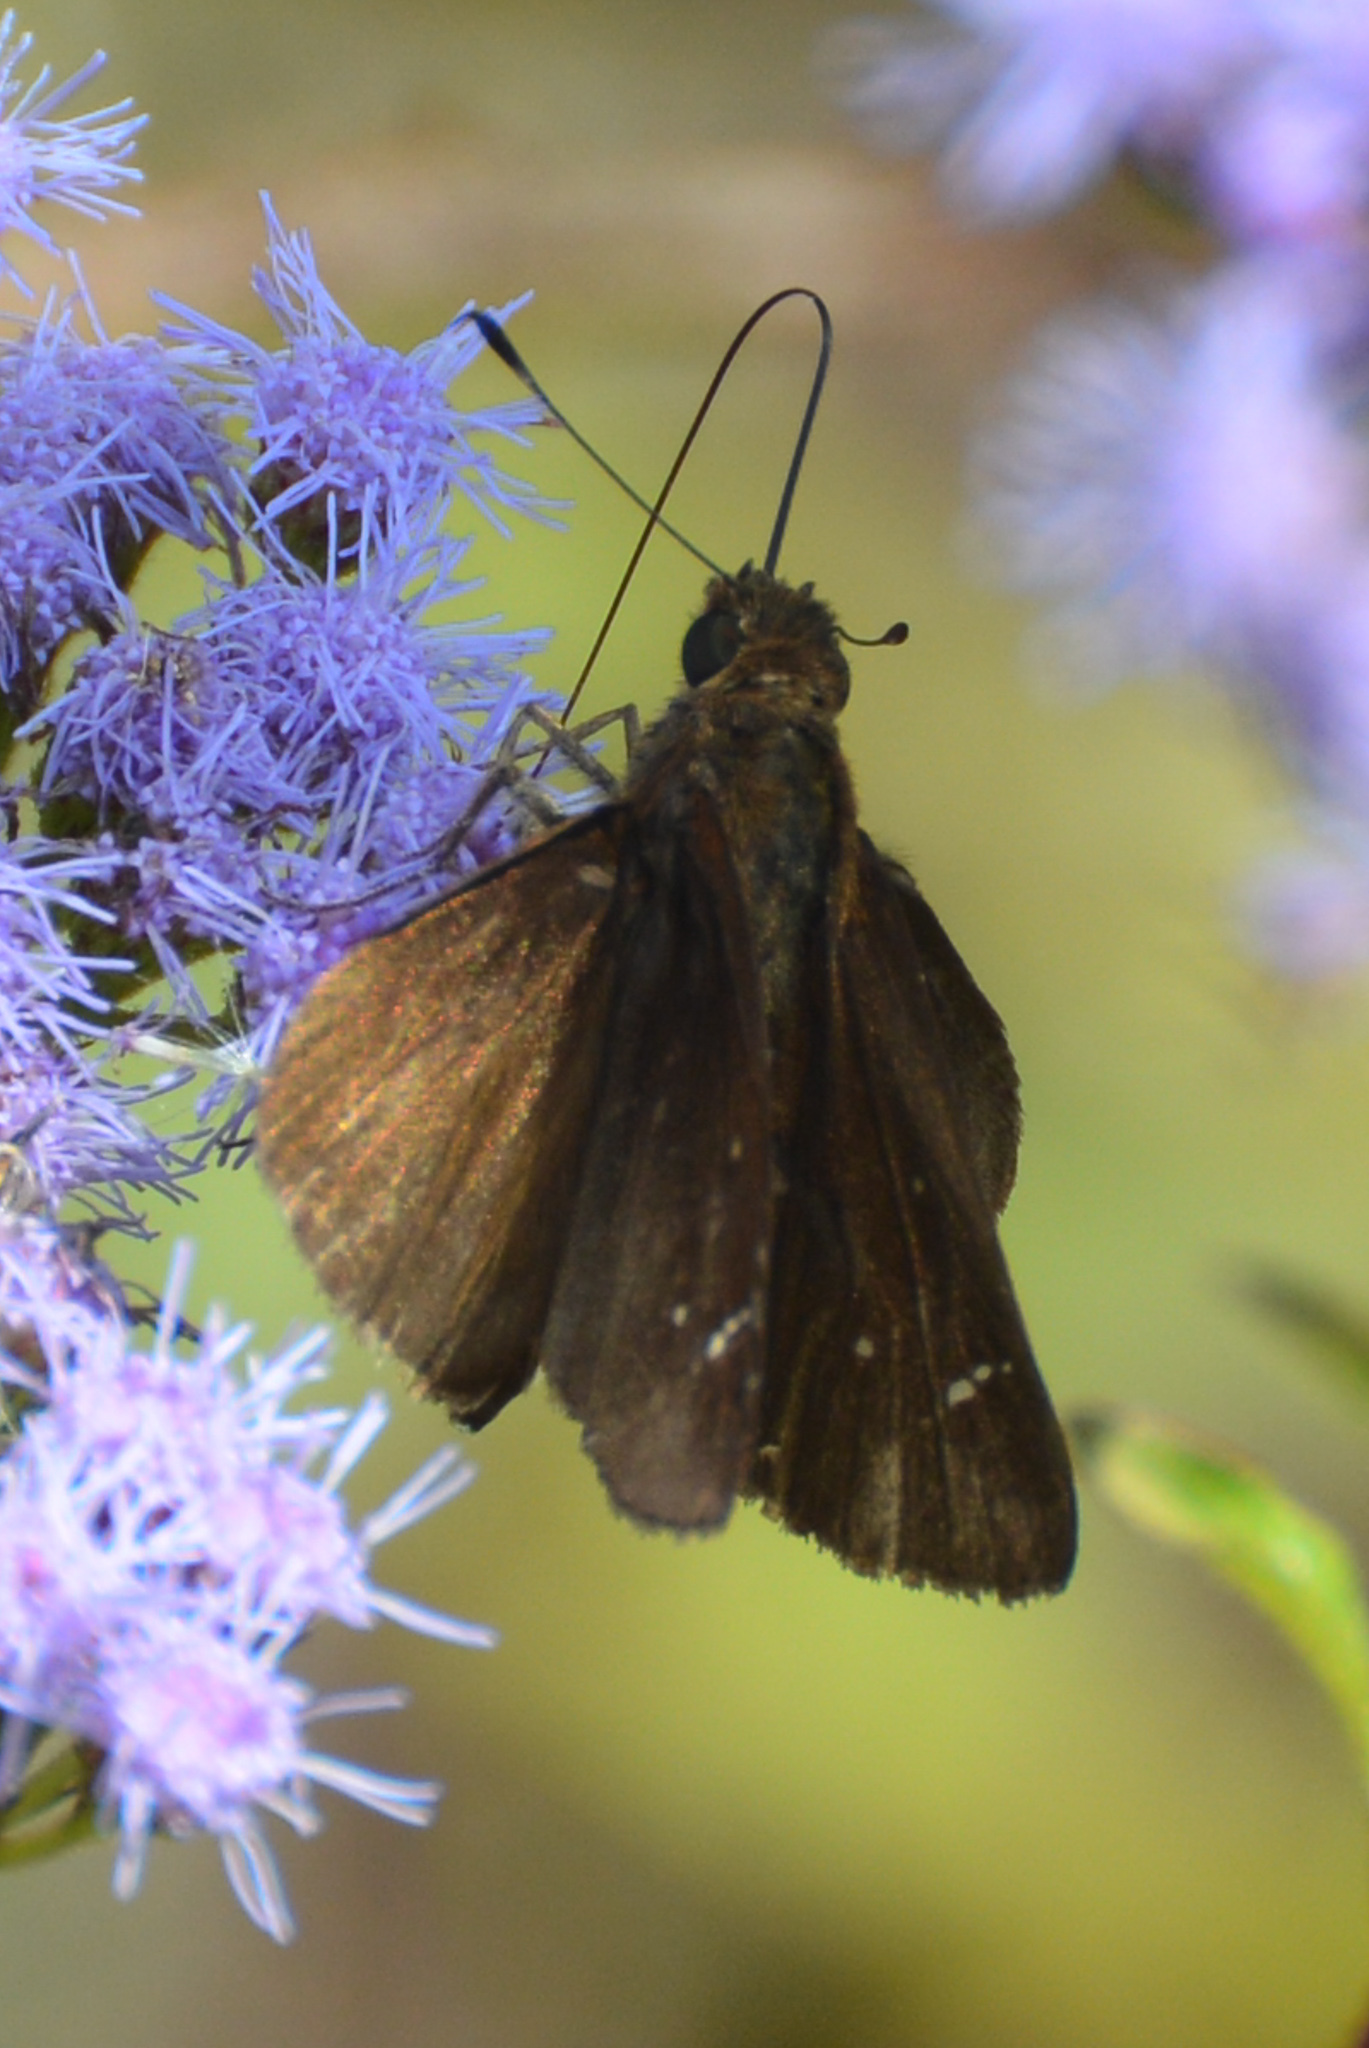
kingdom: Animalia
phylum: Arthropoda
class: Insecta
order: Lepidoptera
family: Hesperiidae
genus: Lerema
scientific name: Lerema accius
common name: Clouded skipper
